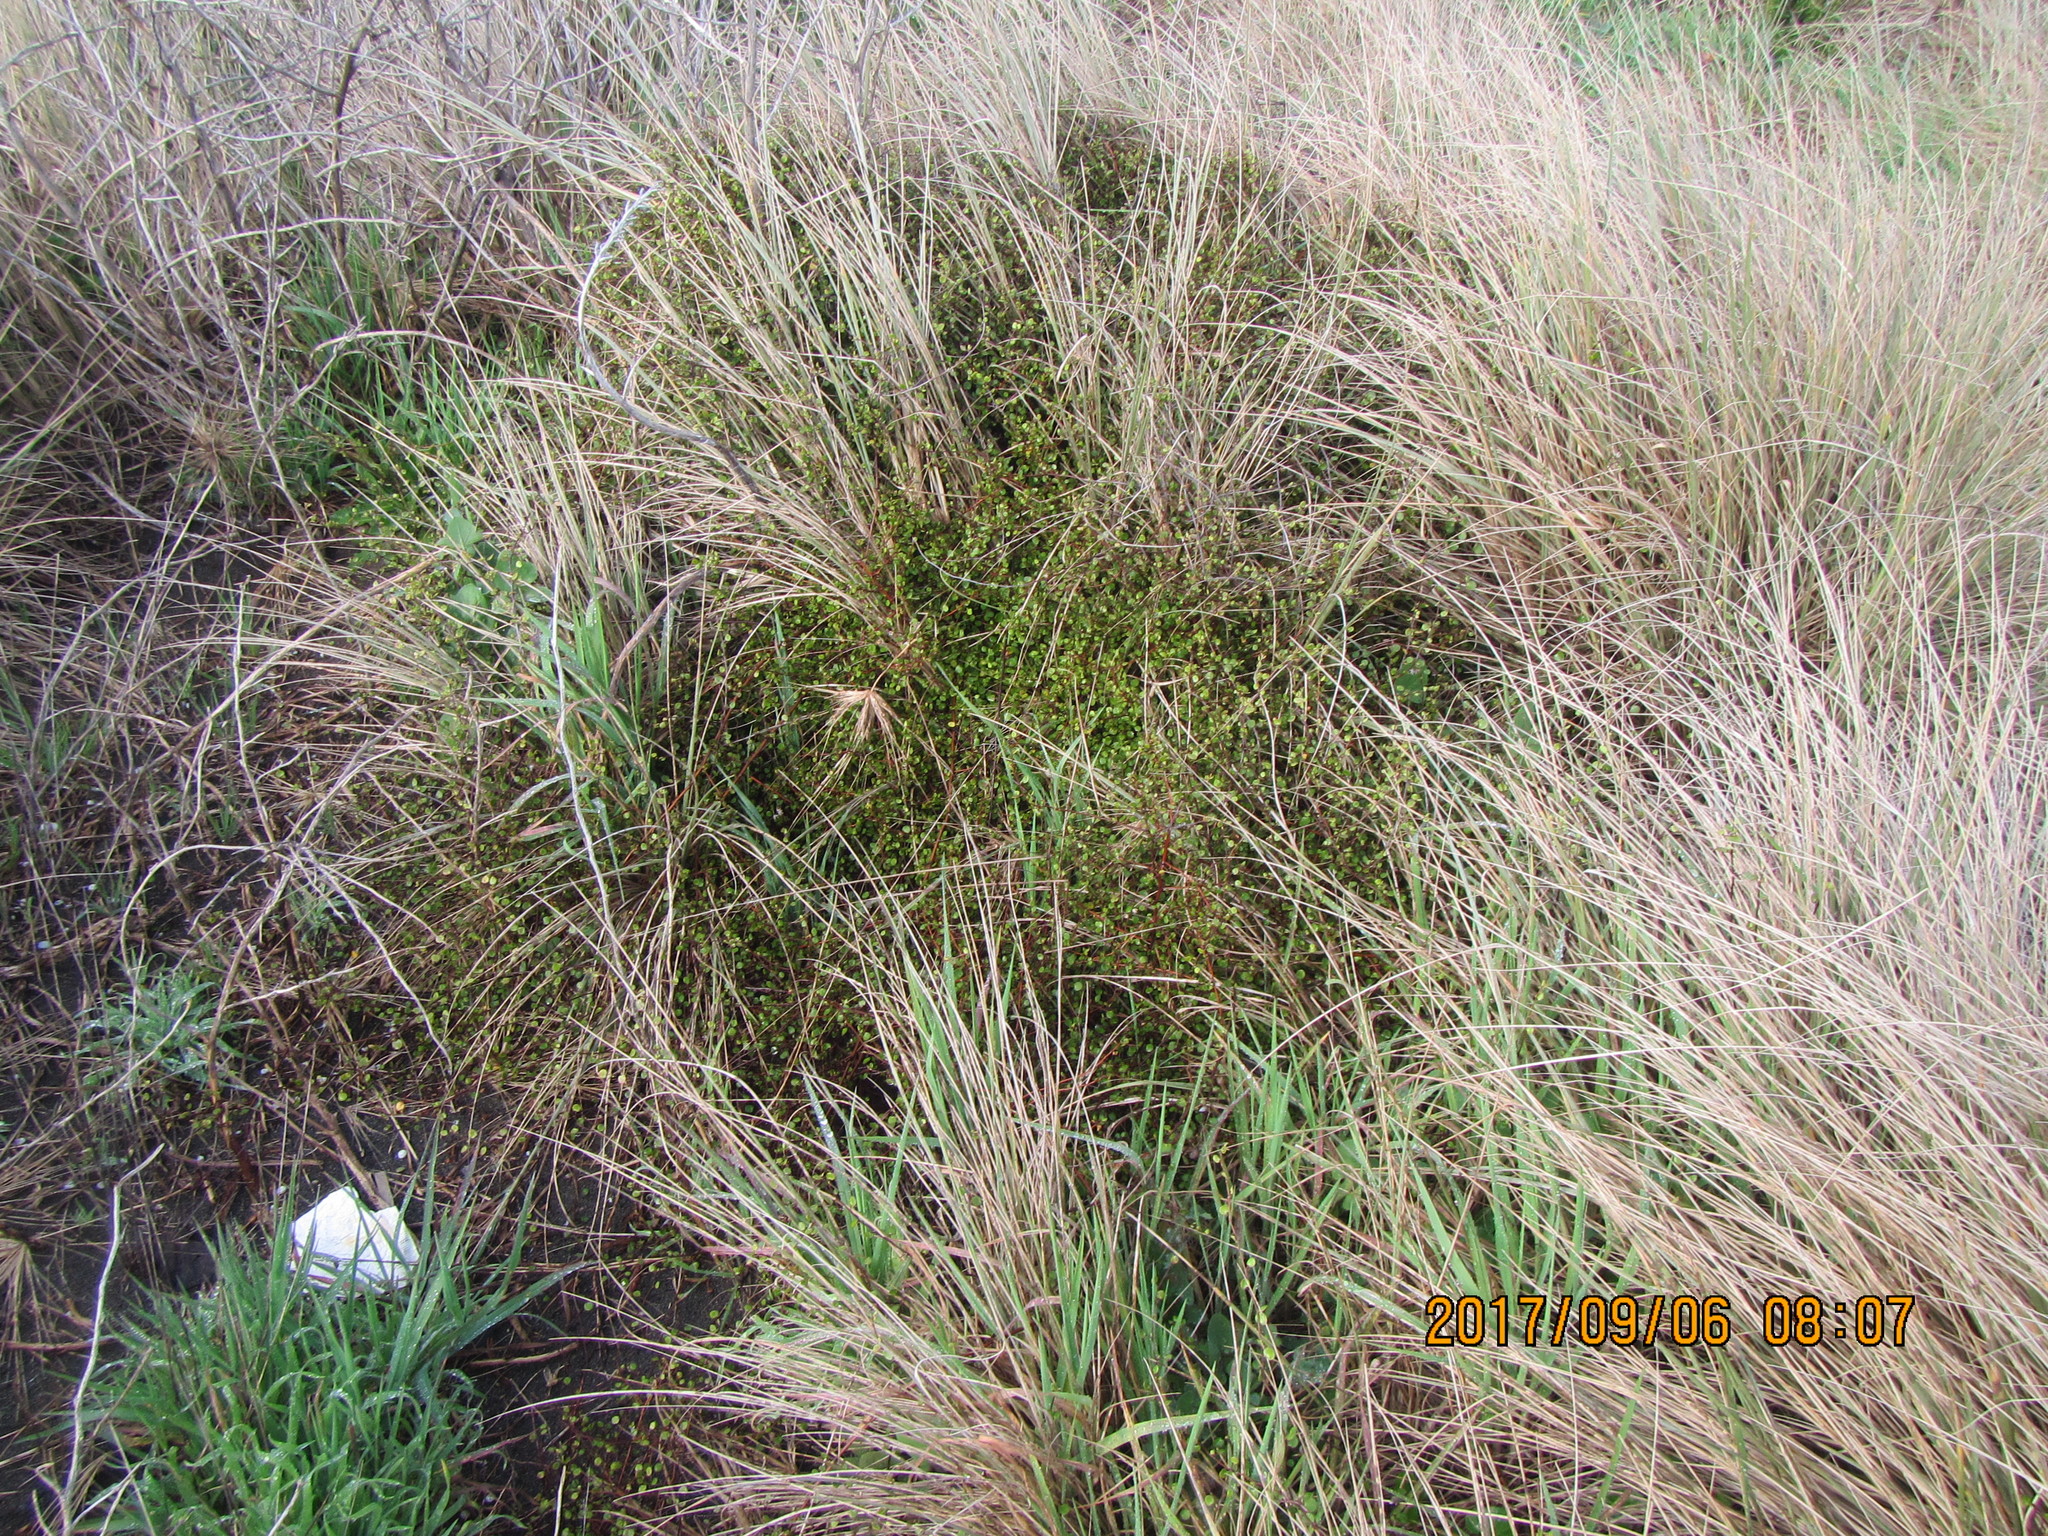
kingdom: Plantae
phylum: Tracheophyta
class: Magnoliopsida
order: Caryophyllales
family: Polygonaceae
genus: Muehlenbeckia
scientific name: Muehlenbeckia complexa
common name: Wireplant
